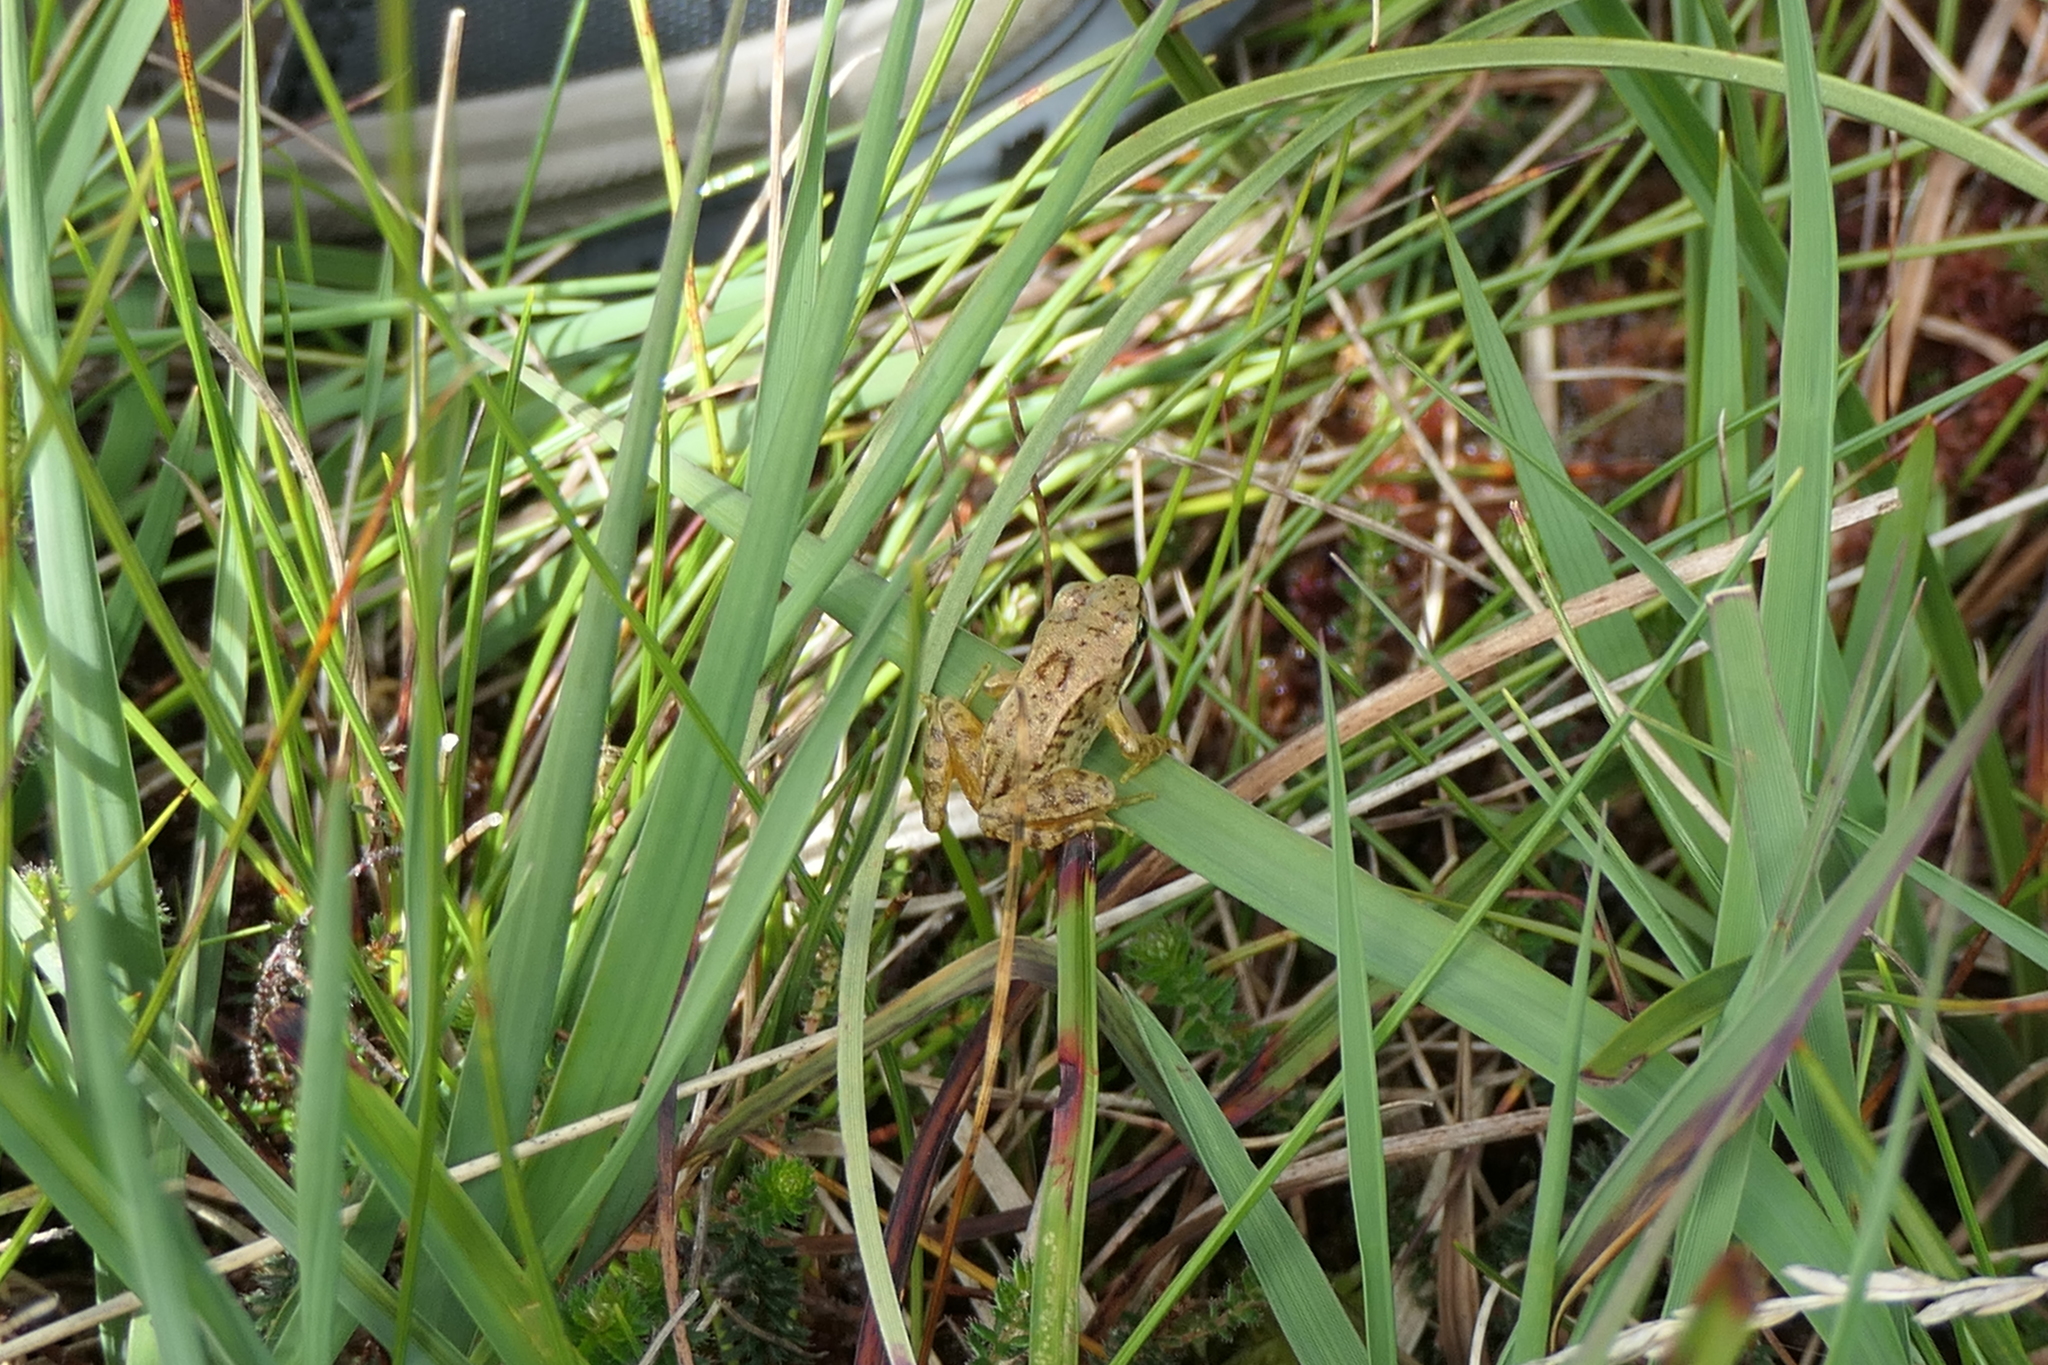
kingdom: Animalia
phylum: Chordata
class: Amphibia
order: Anura
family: Ranidae
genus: Rana
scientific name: Rana temporaria
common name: Common frog
